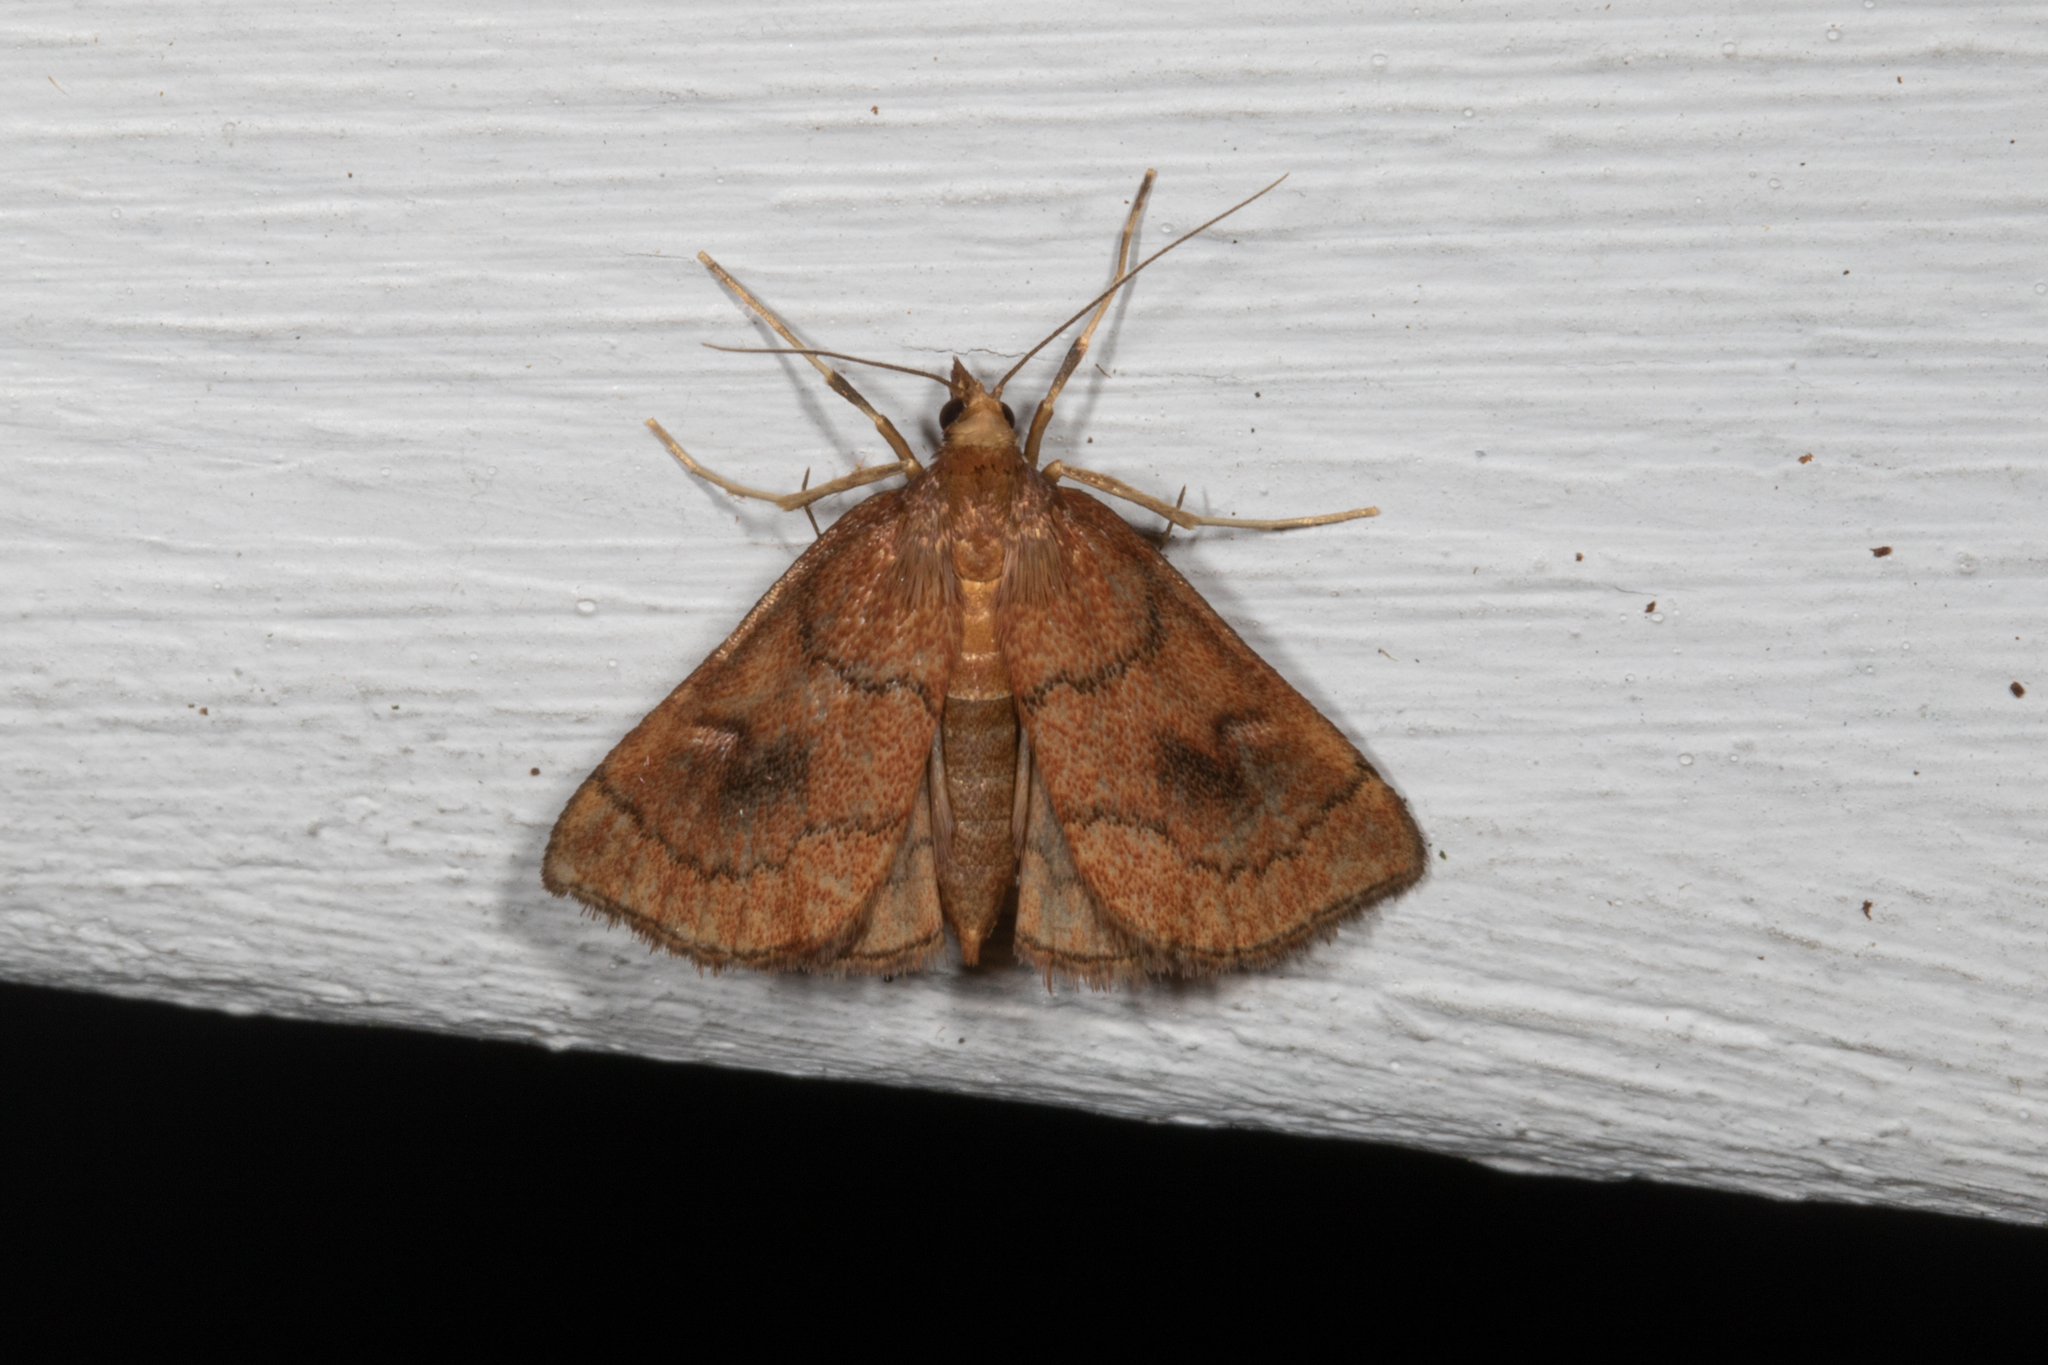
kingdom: Animalia
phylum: Arthropoda
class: Insecta
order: Lepidoptera
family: Crambidae
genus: Fumibotys
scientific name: Fumibotys fumalis
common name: Mint root borer moth
